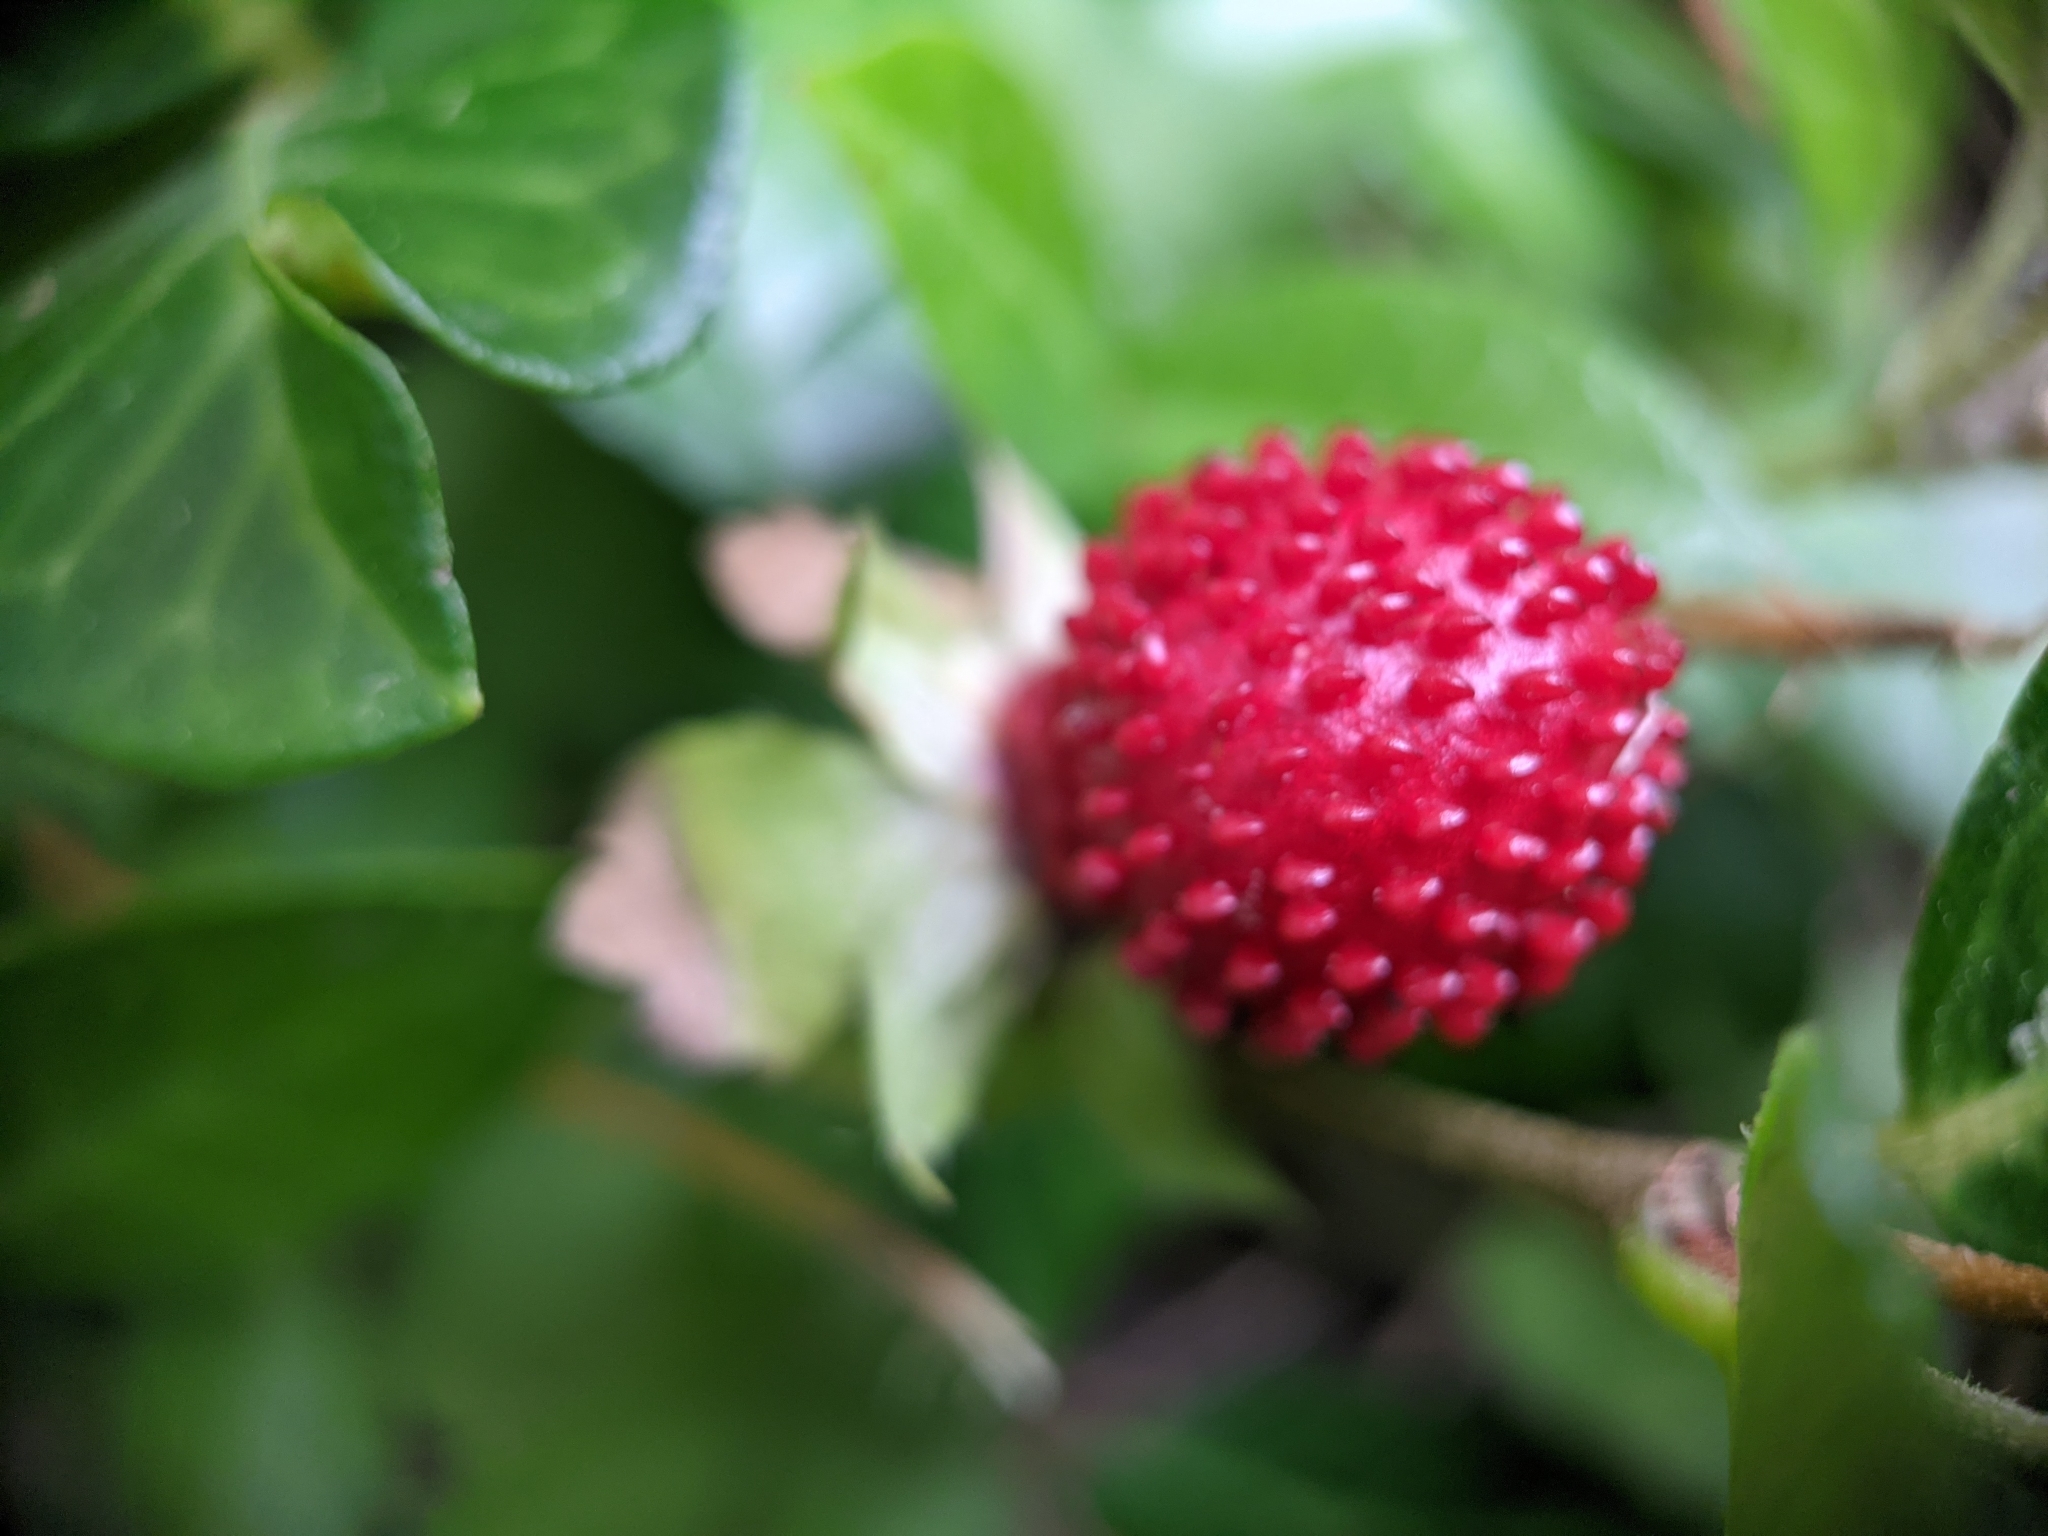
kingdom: Plantae
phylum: Tracheophyta
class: Magnoliopsida
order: Rosales
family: Rosaceae
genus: Potentilla
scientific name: Potentilla indica
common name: Yellow-flowered strawberry
